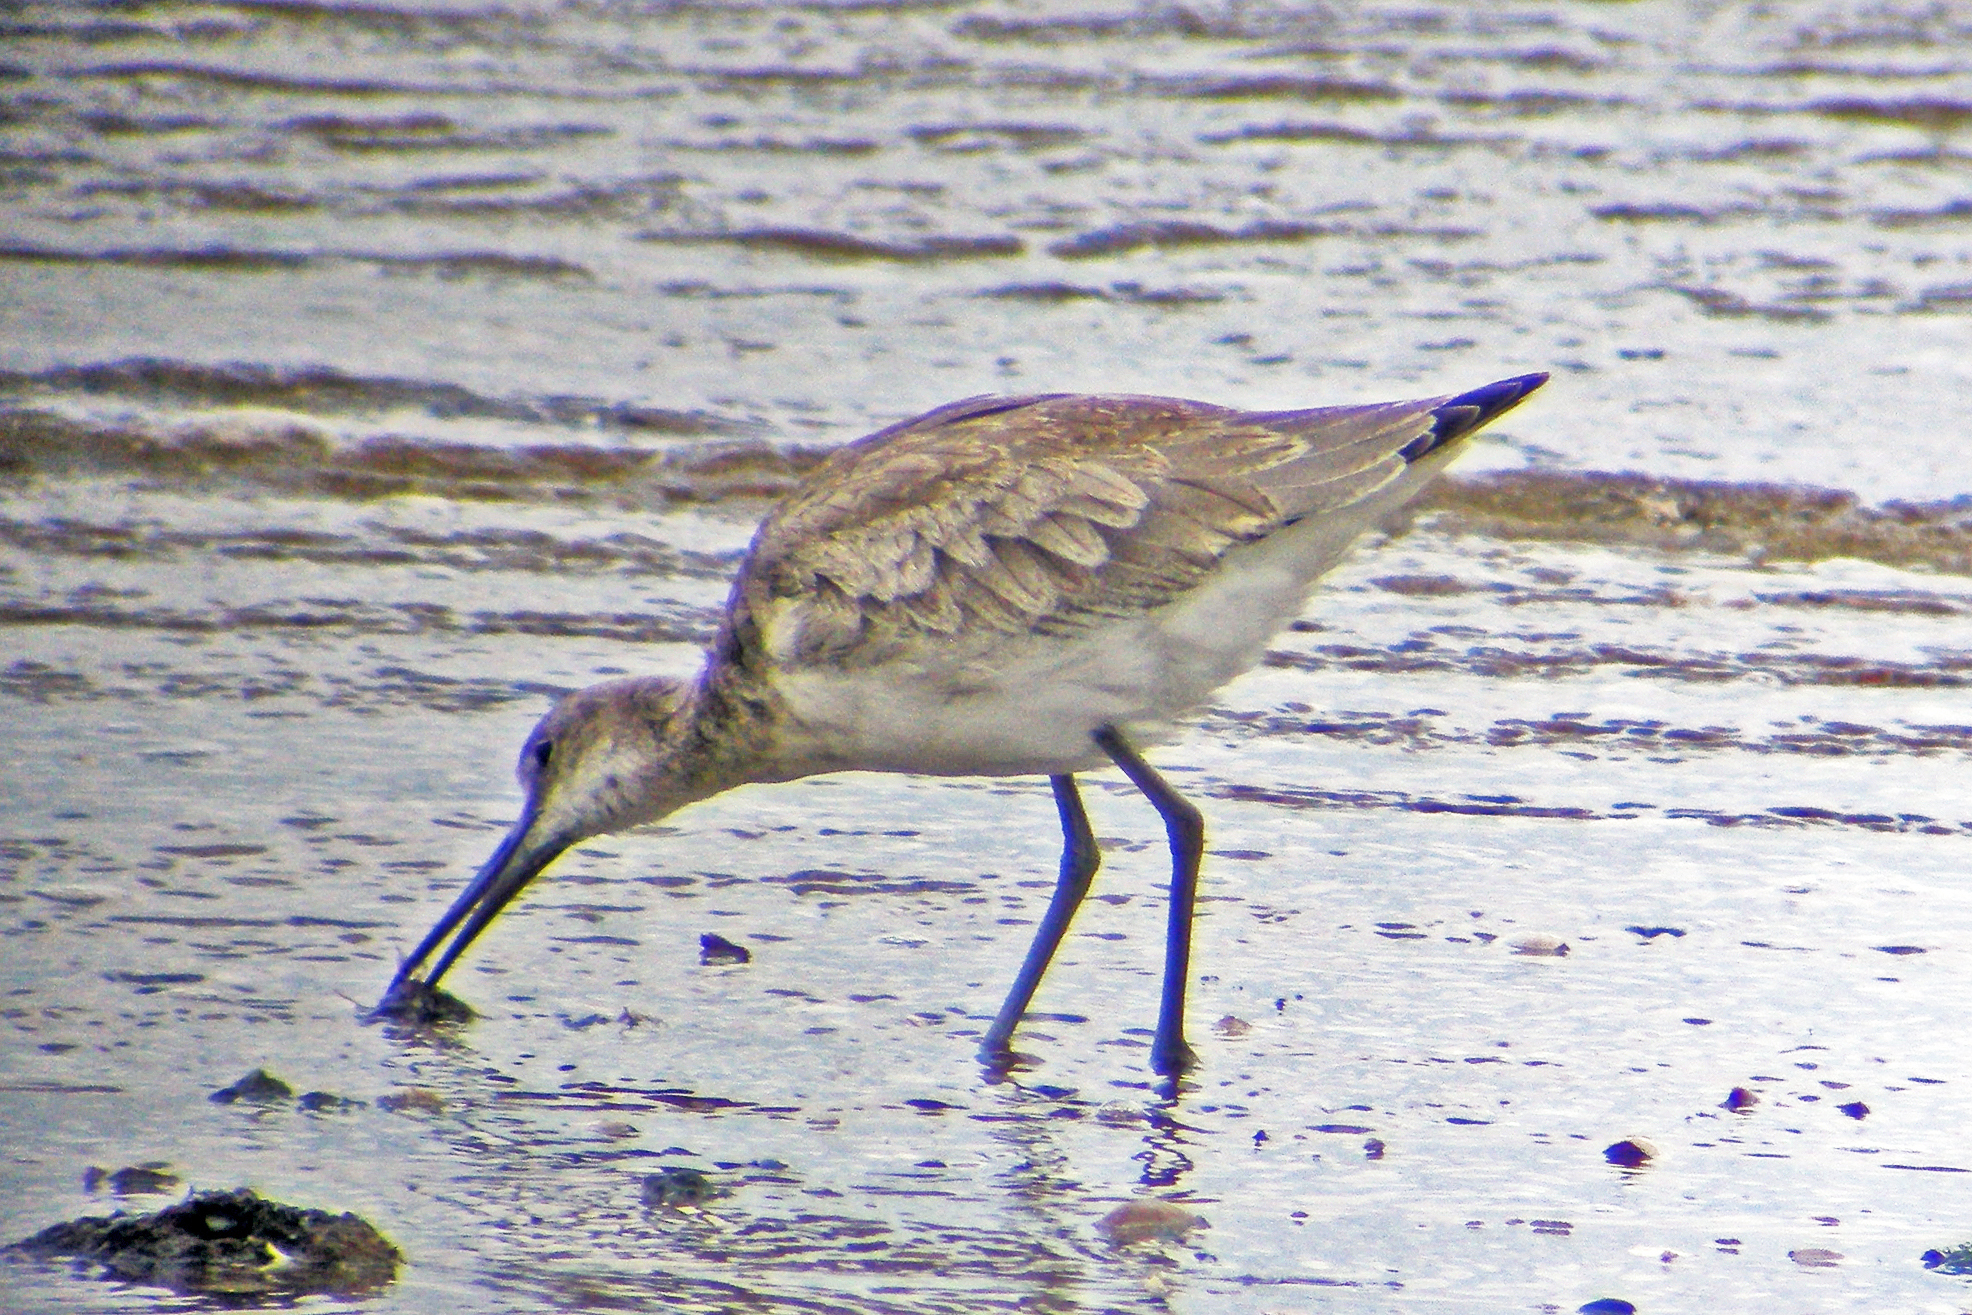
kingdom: Animalia
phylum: Chordata
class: Aves
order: Charadriiformes
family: Scolopacidae
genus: Tringa
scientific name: Tringa semipalmata
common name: Willet
